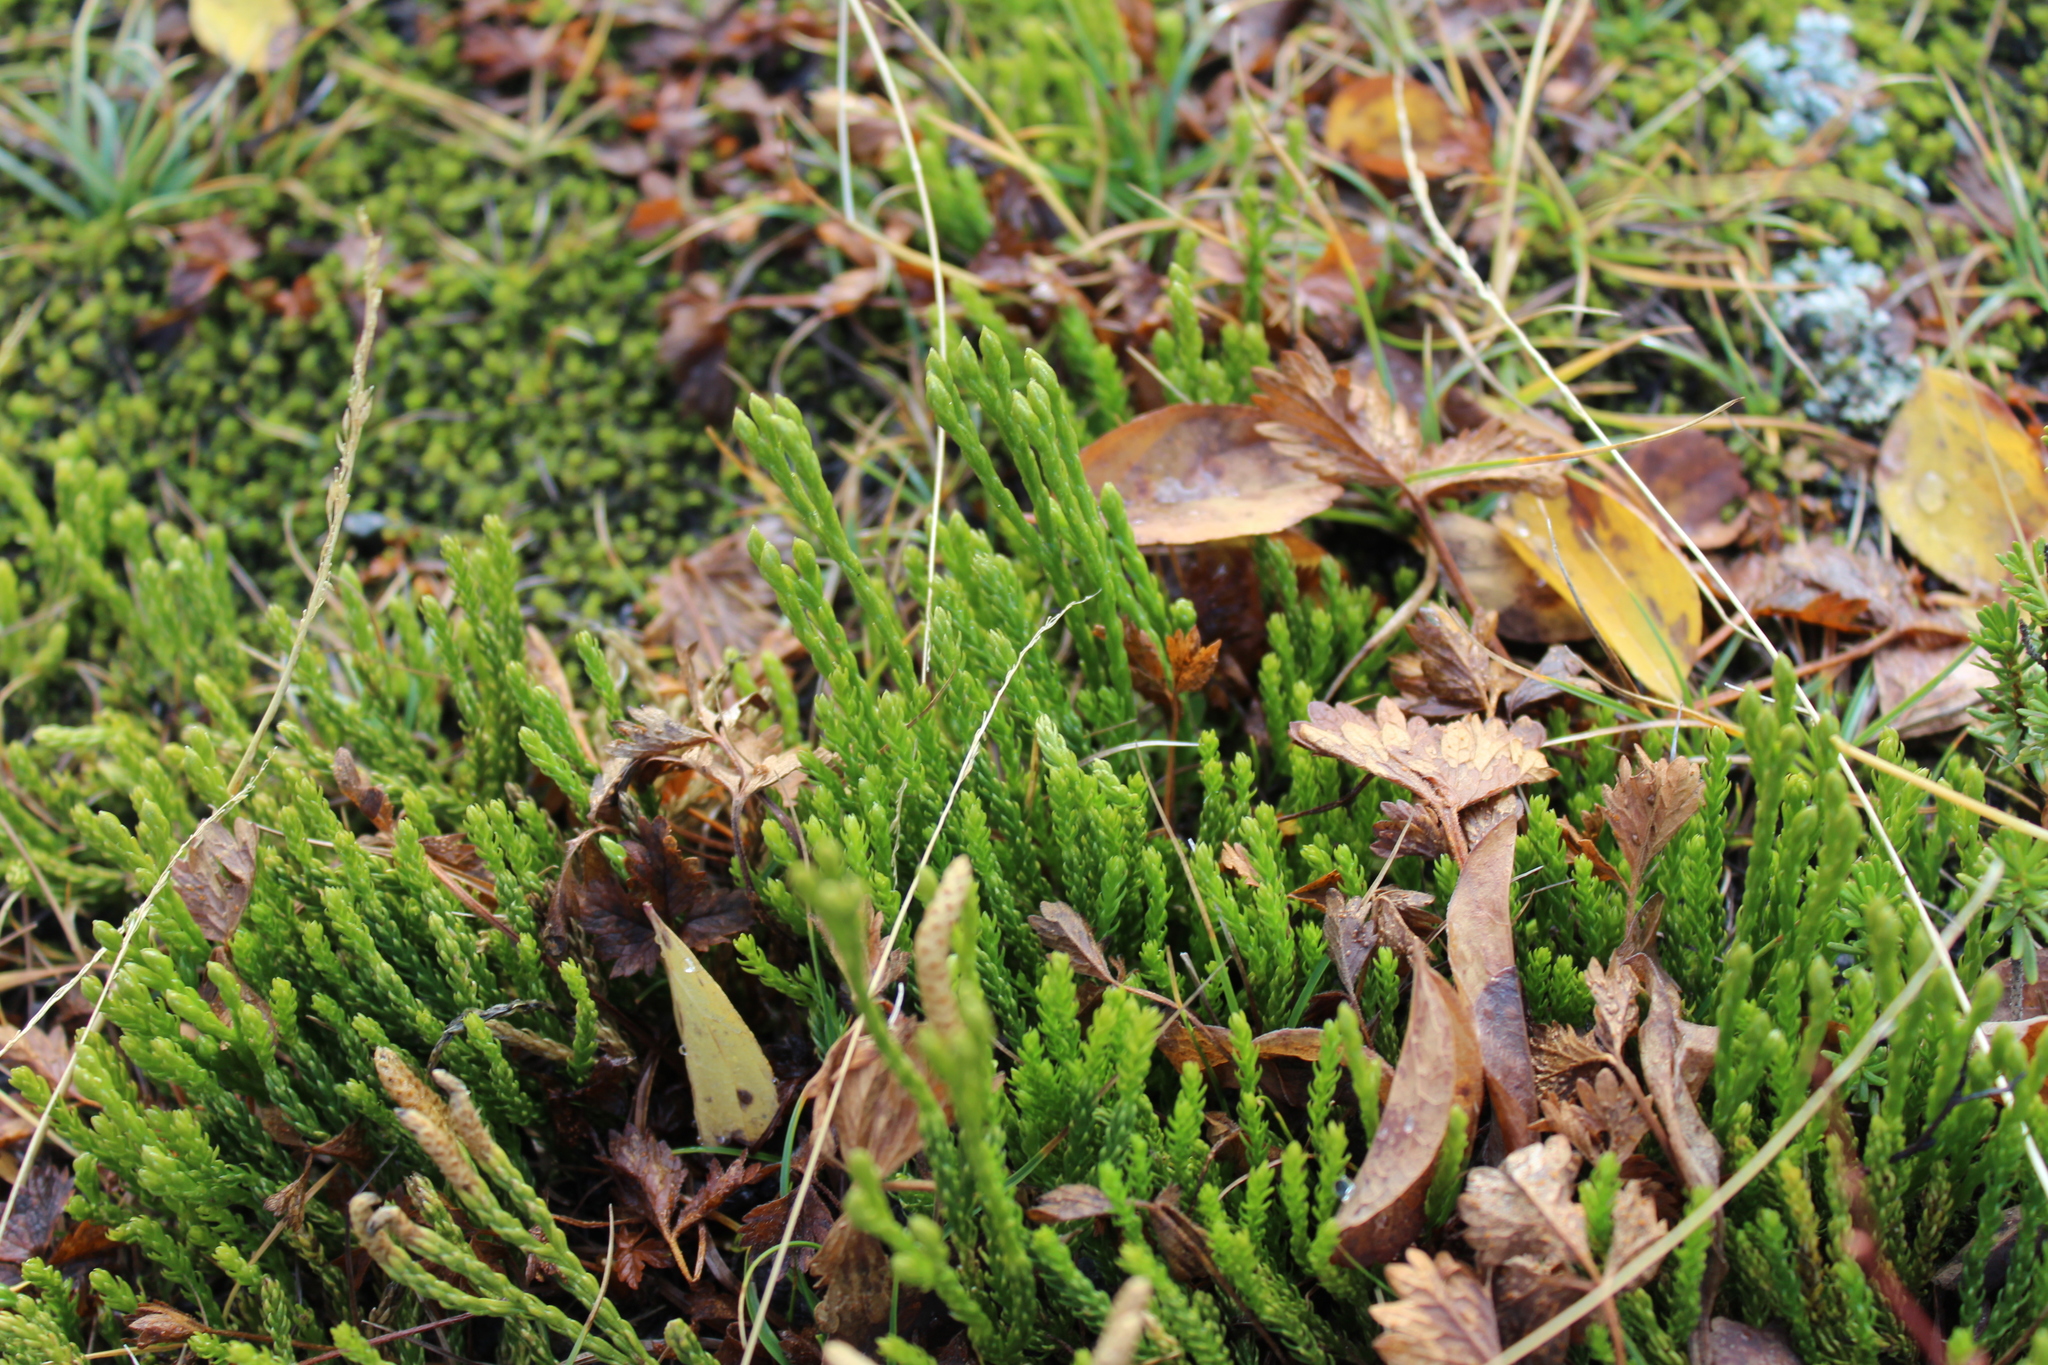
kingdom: Plantae
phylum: Tracheophyta
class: Lycopodiopsida
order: Lycopodiales
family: Lycopodiaceae
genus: Diphasiastrum
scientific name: Diphasiastrum sitchense
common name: Alaska clubmoss
